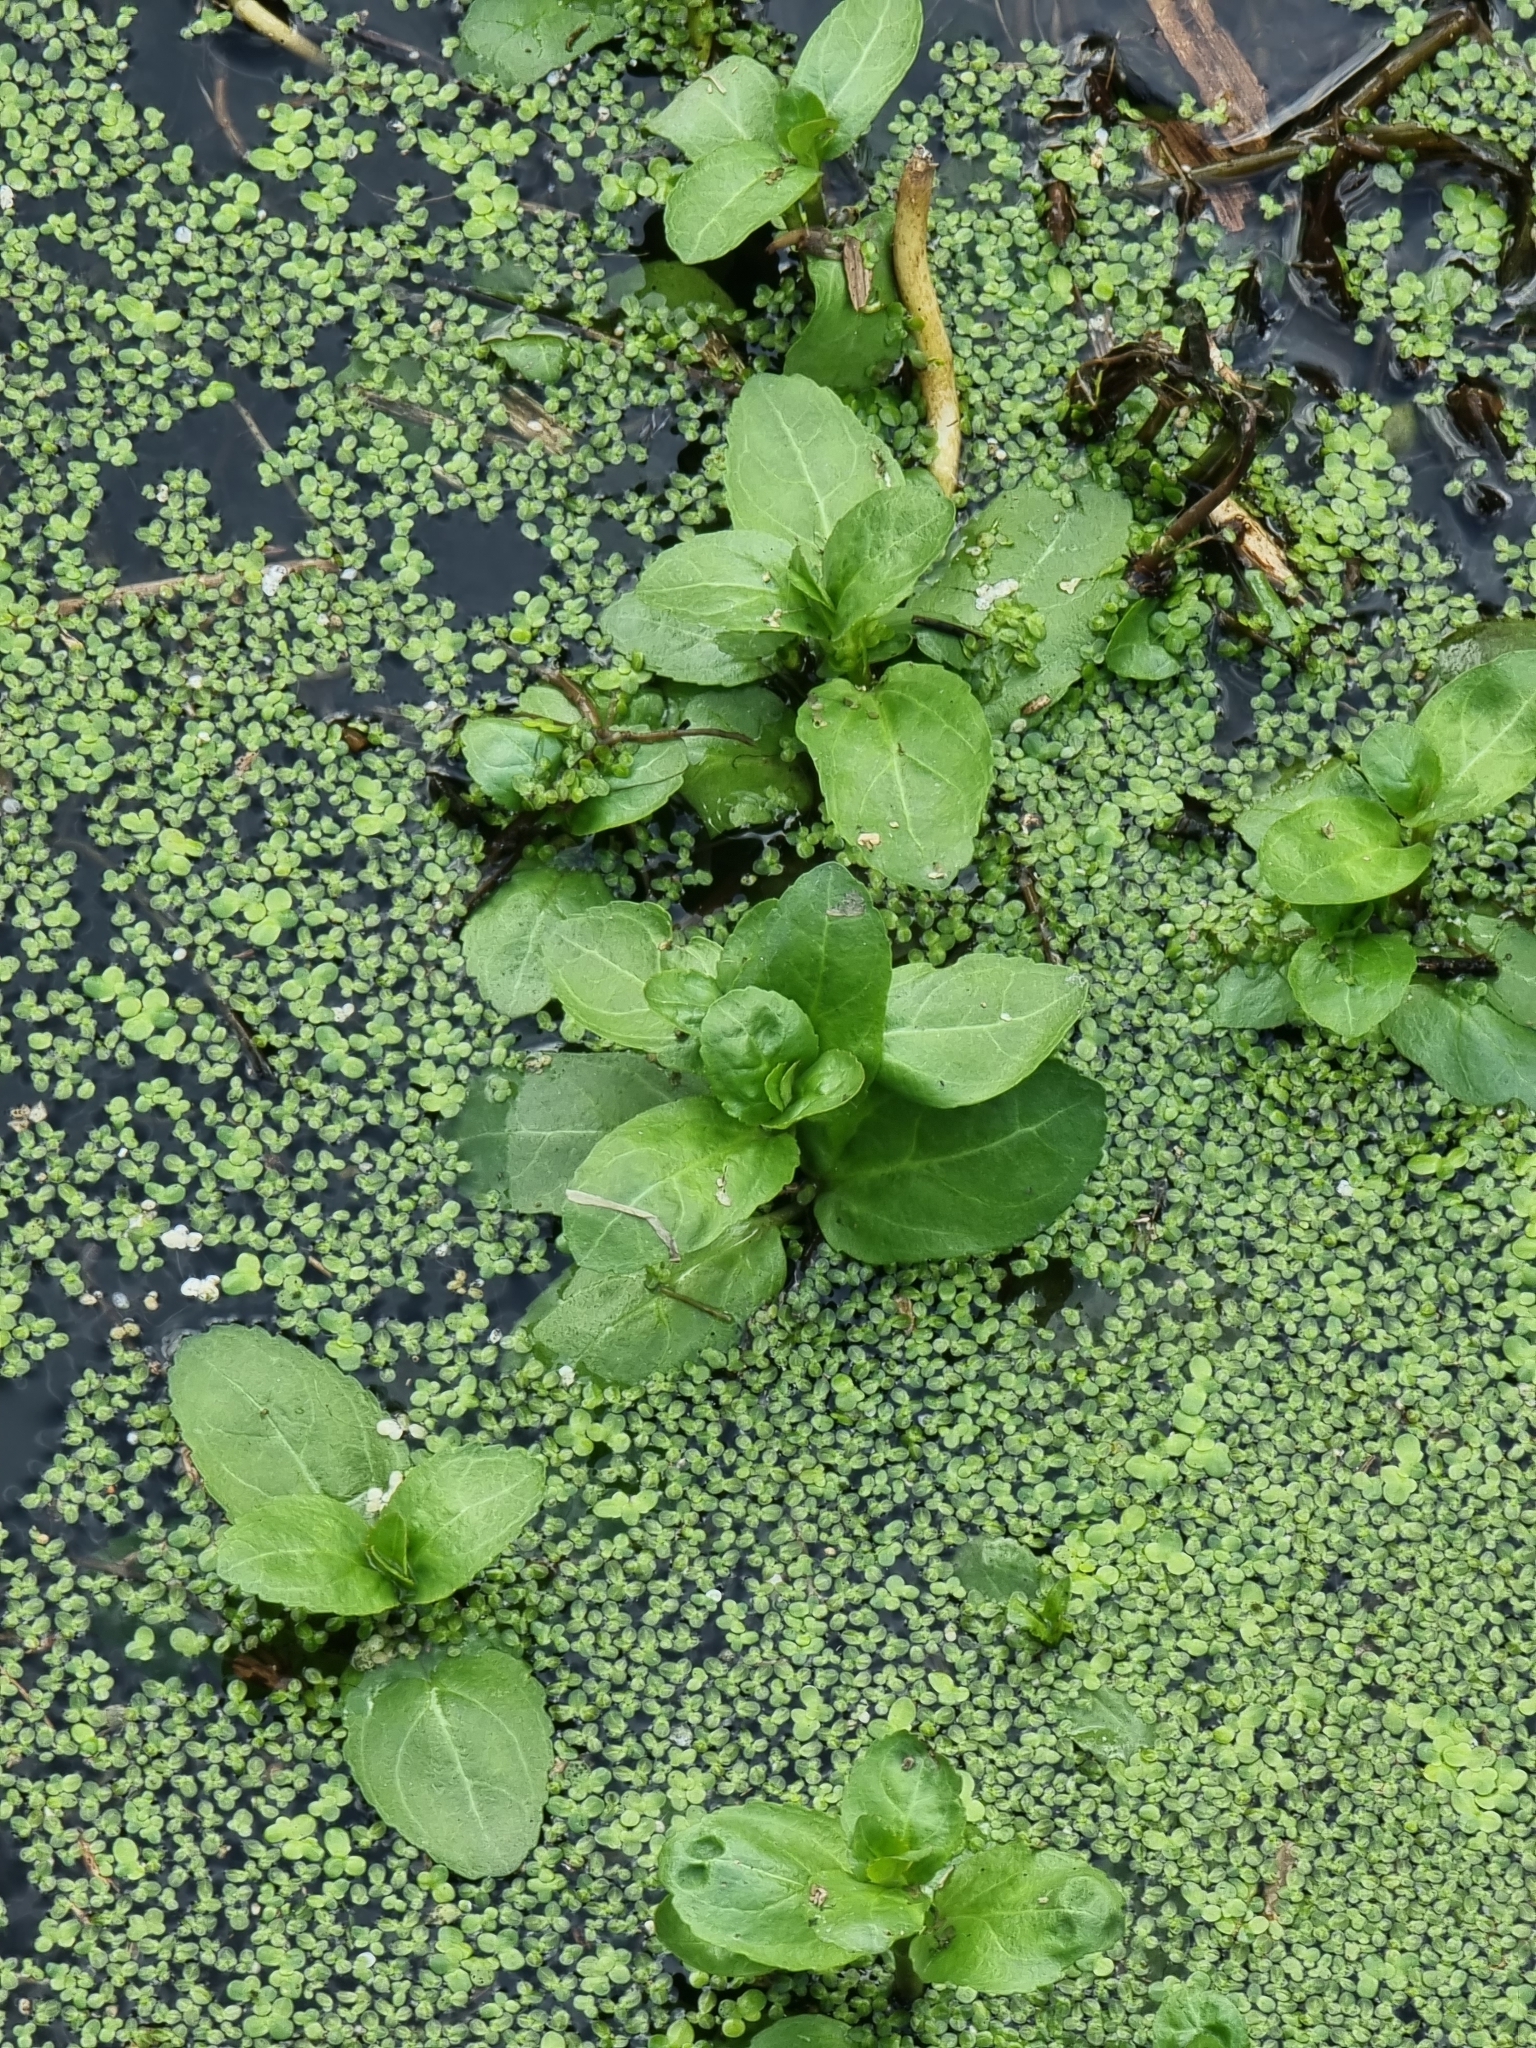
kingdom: Plantae
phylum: Tracheophyta
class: Magnoliopsida
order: Lamiales
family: Plantaginaceae
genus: Veronica
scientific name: Veronica beccabunga
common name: Brooklime
